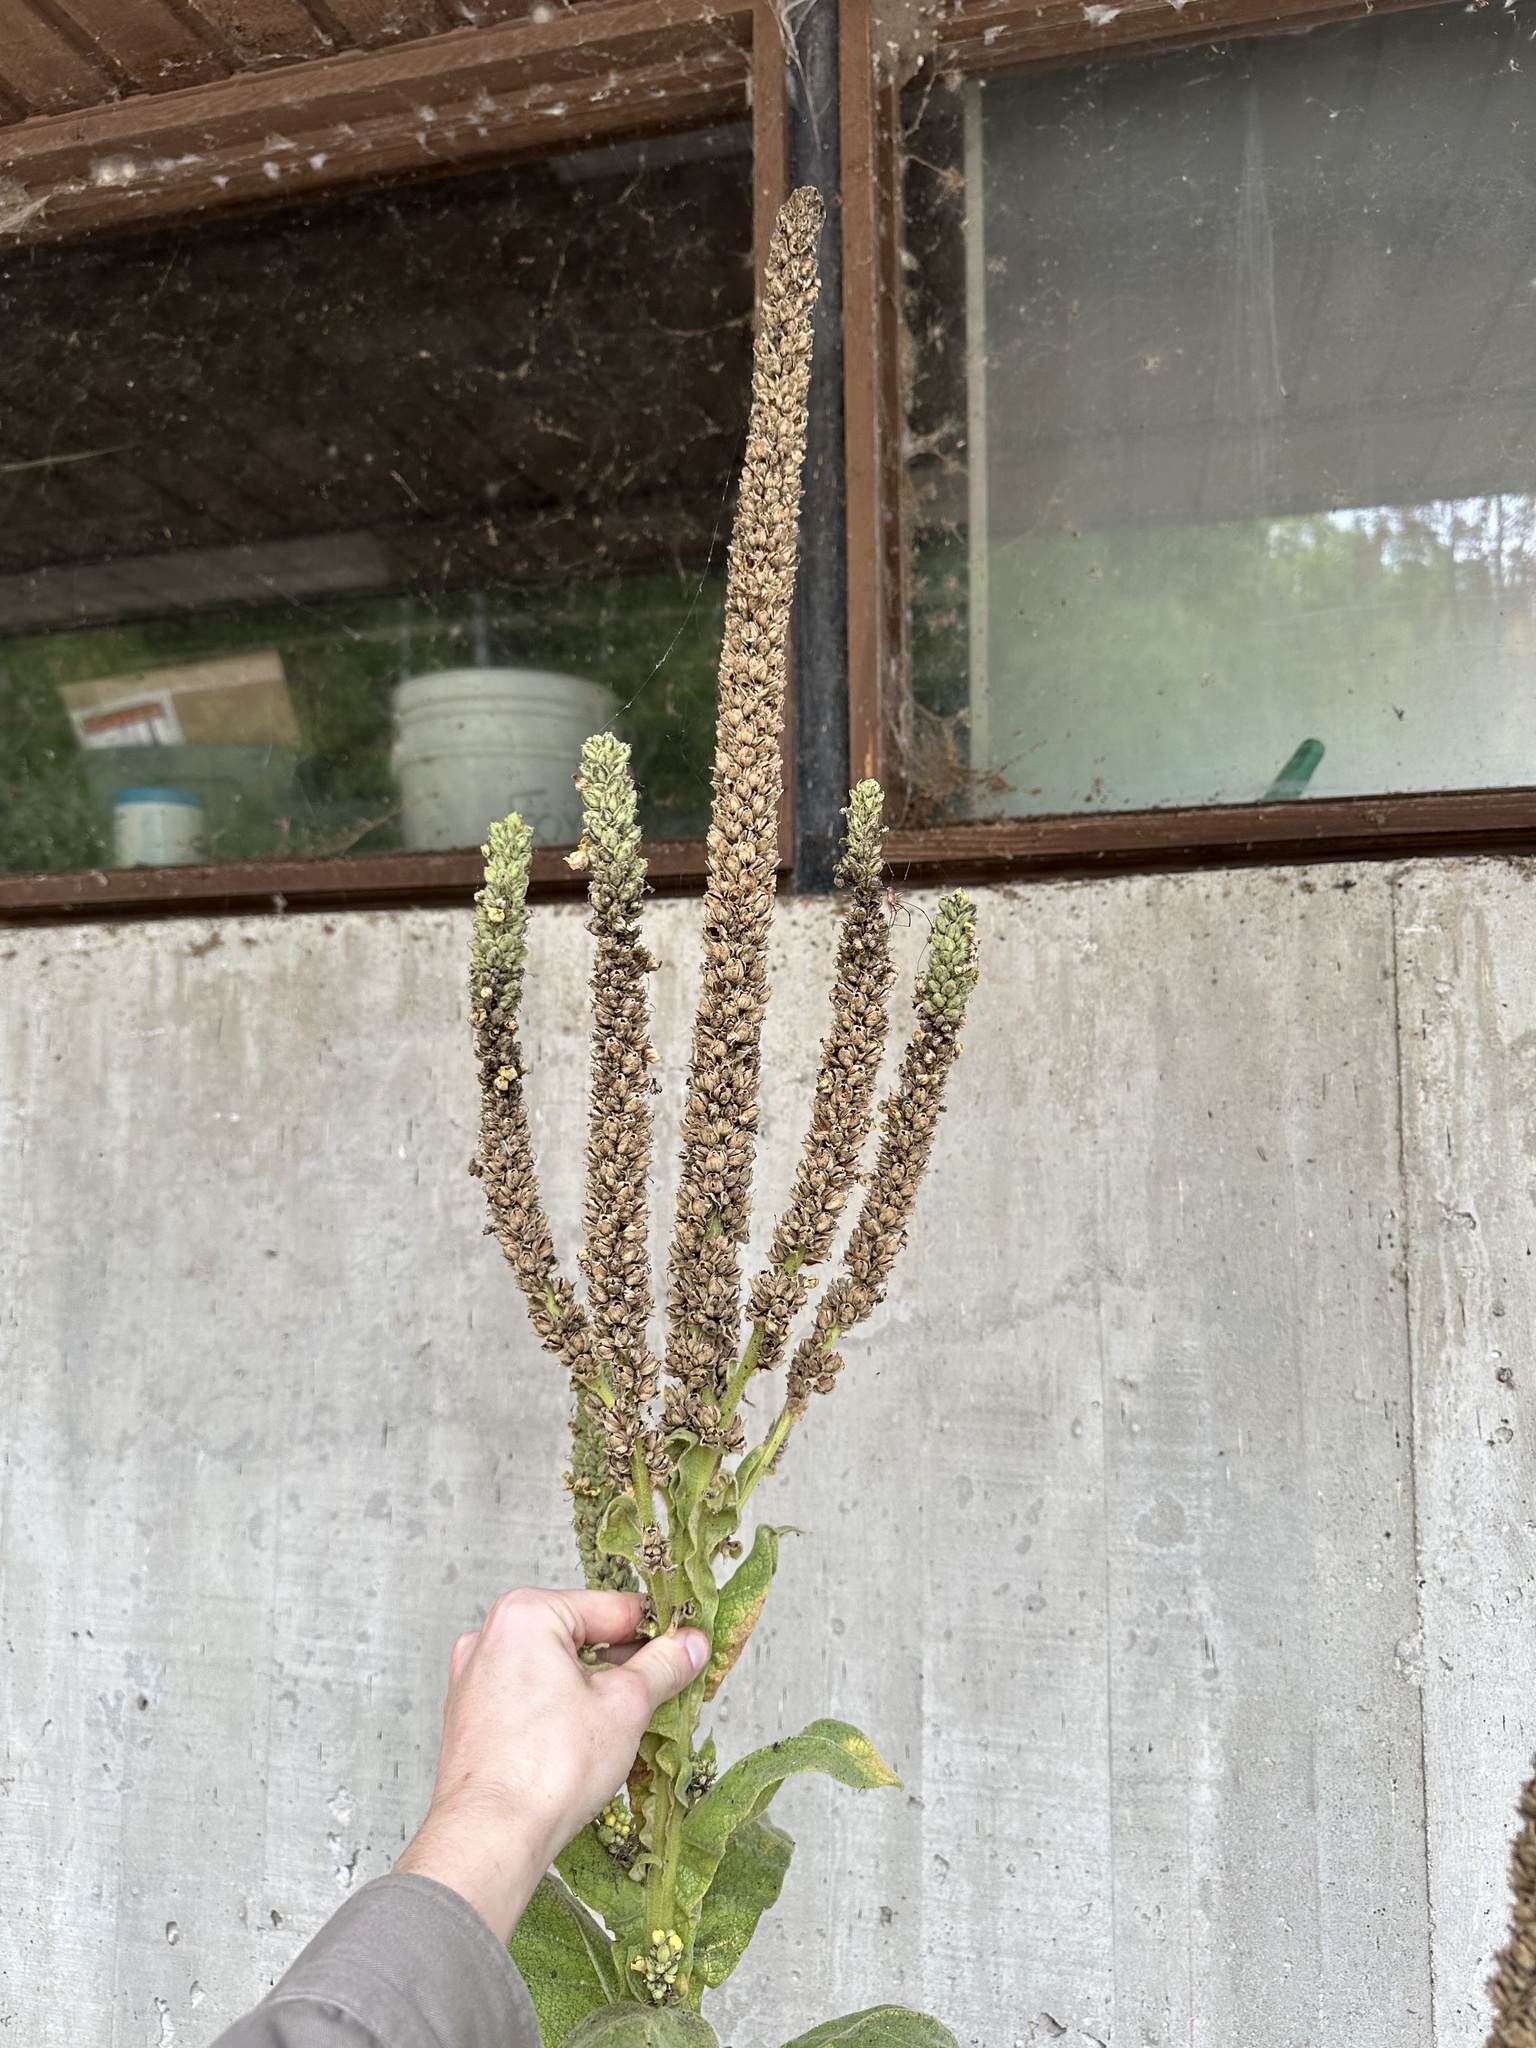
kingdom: Plantae
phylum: Tracheophyta
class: Magnoliopsida
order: Lamiales
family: Scrophulariaceae
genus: Verbascum
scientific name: Verbascum thapsus
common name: Common mullein
